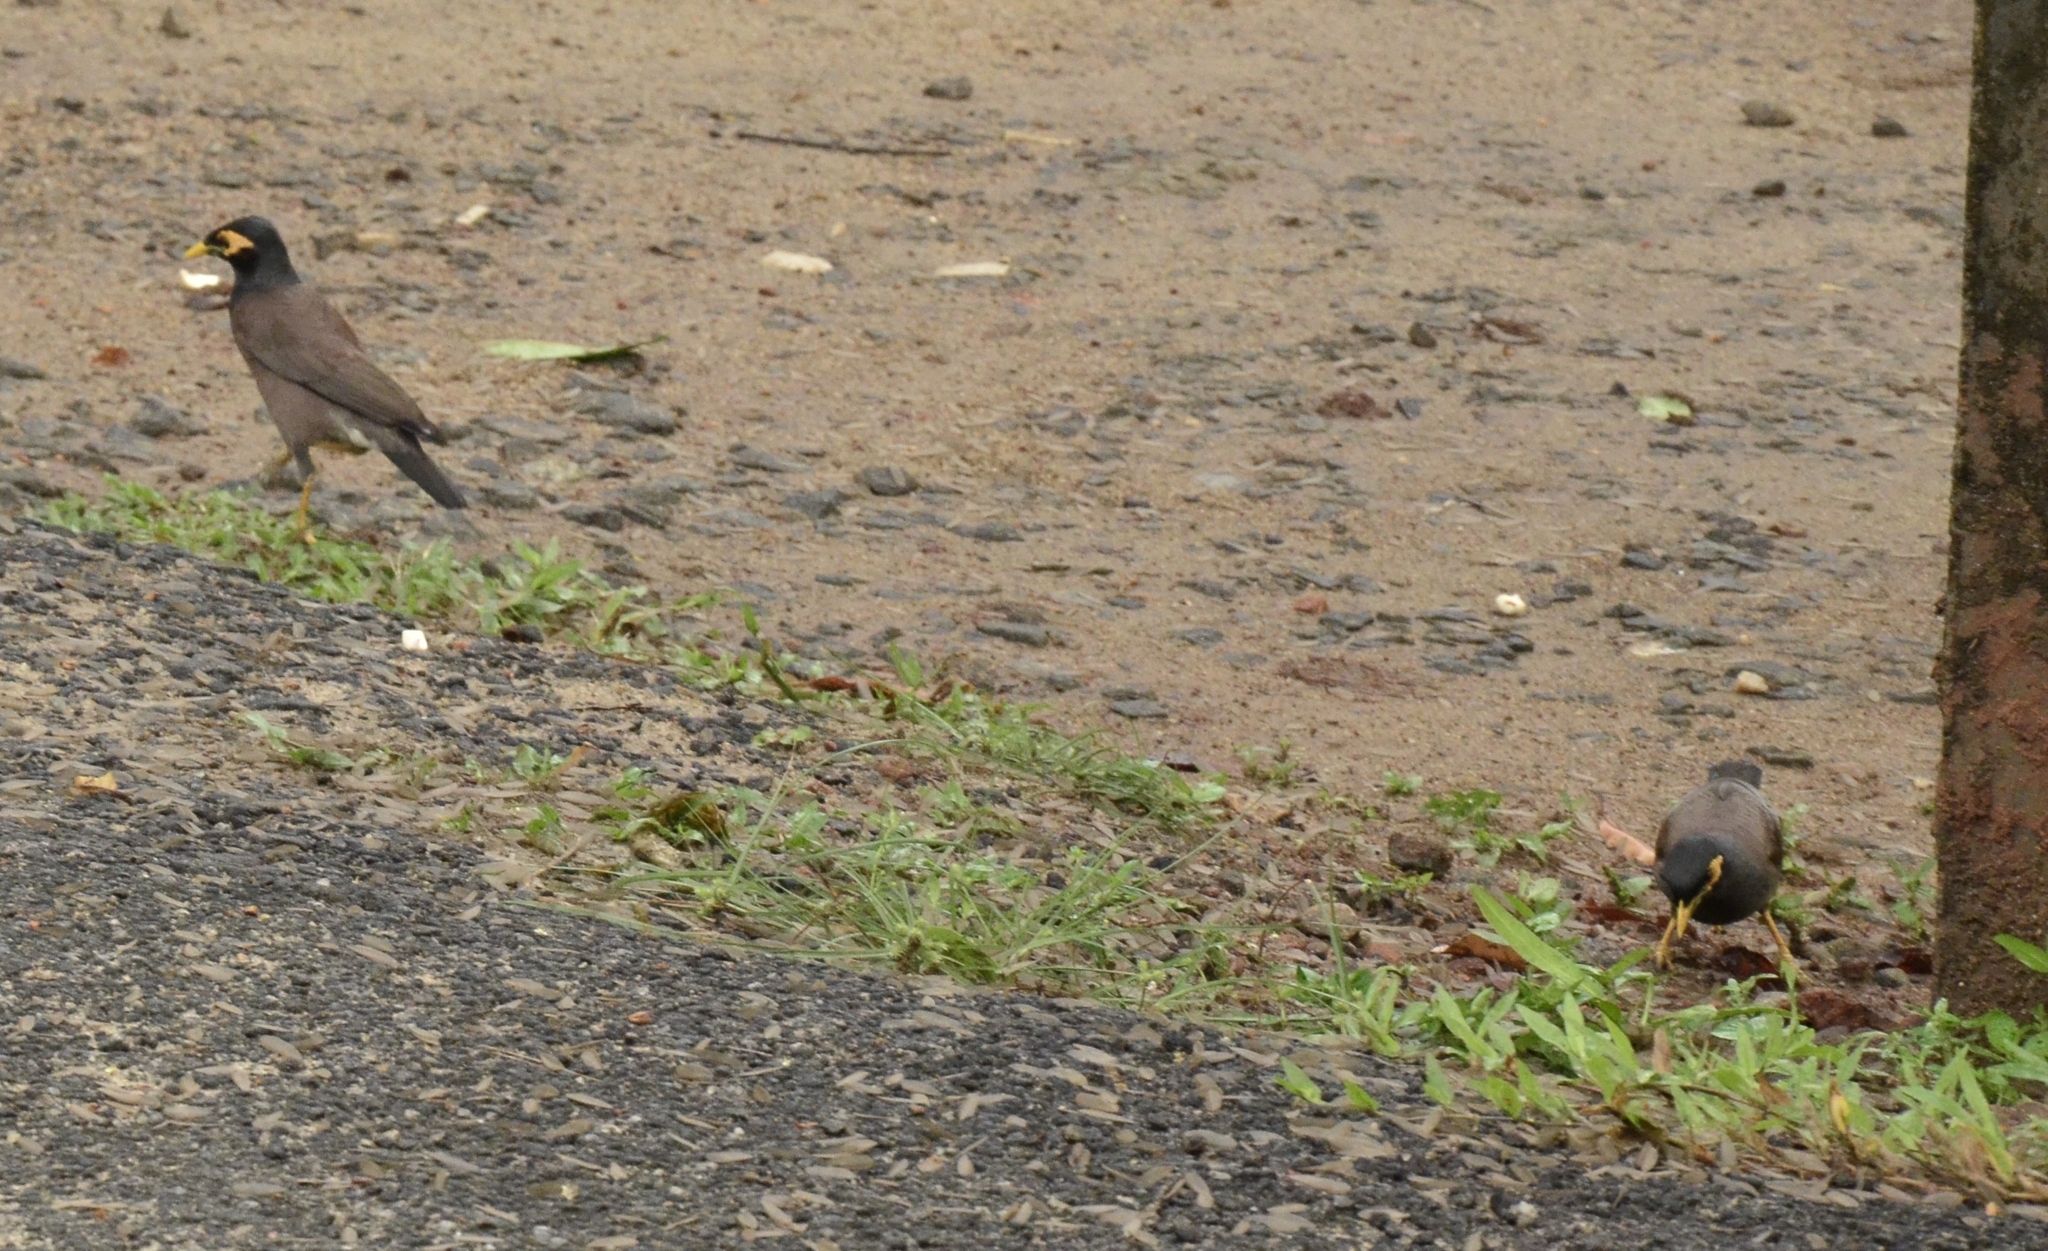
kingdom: Animalia
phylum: Chordata
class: Aves
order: Passeriformes
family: Sturnidae
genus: Acridotheres
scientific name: Acridotheres tristis
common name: Common myna
